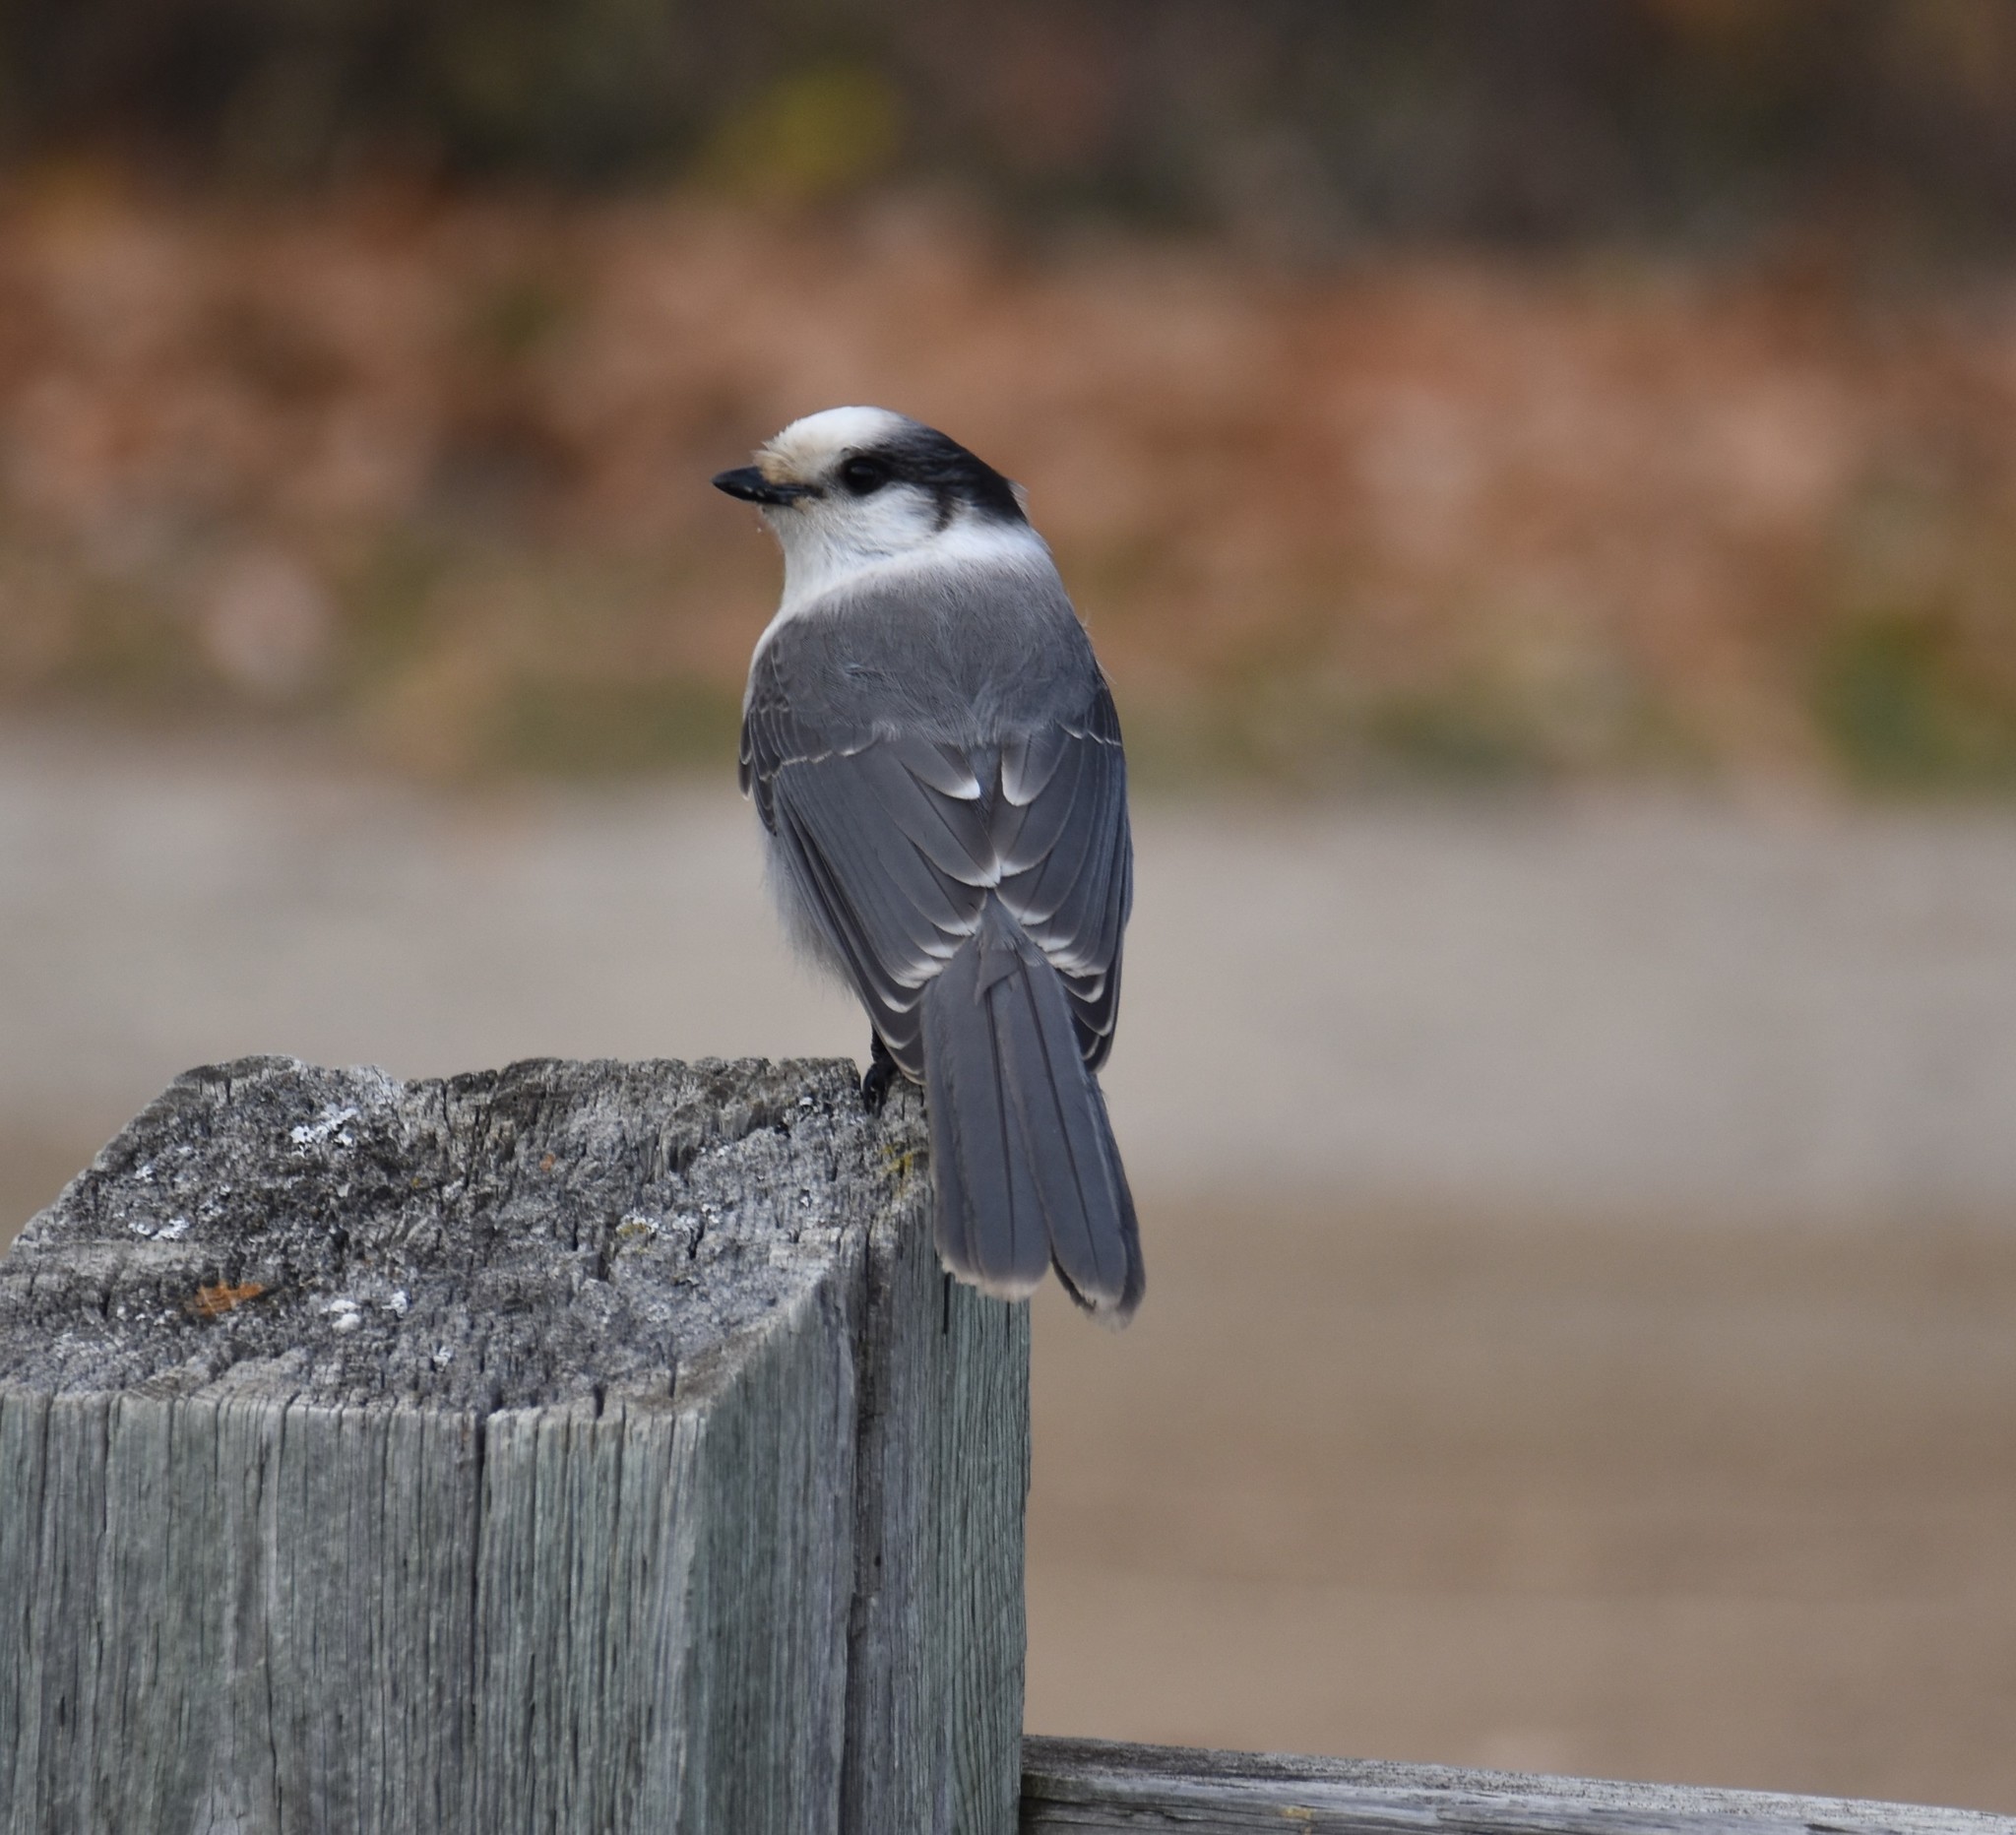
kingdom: Animalia
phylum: Chordata
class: Aves
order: Passeriformes
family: Corvidae
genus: Perisoreus
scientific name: Perisoreus canadensis
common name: Gray jay
